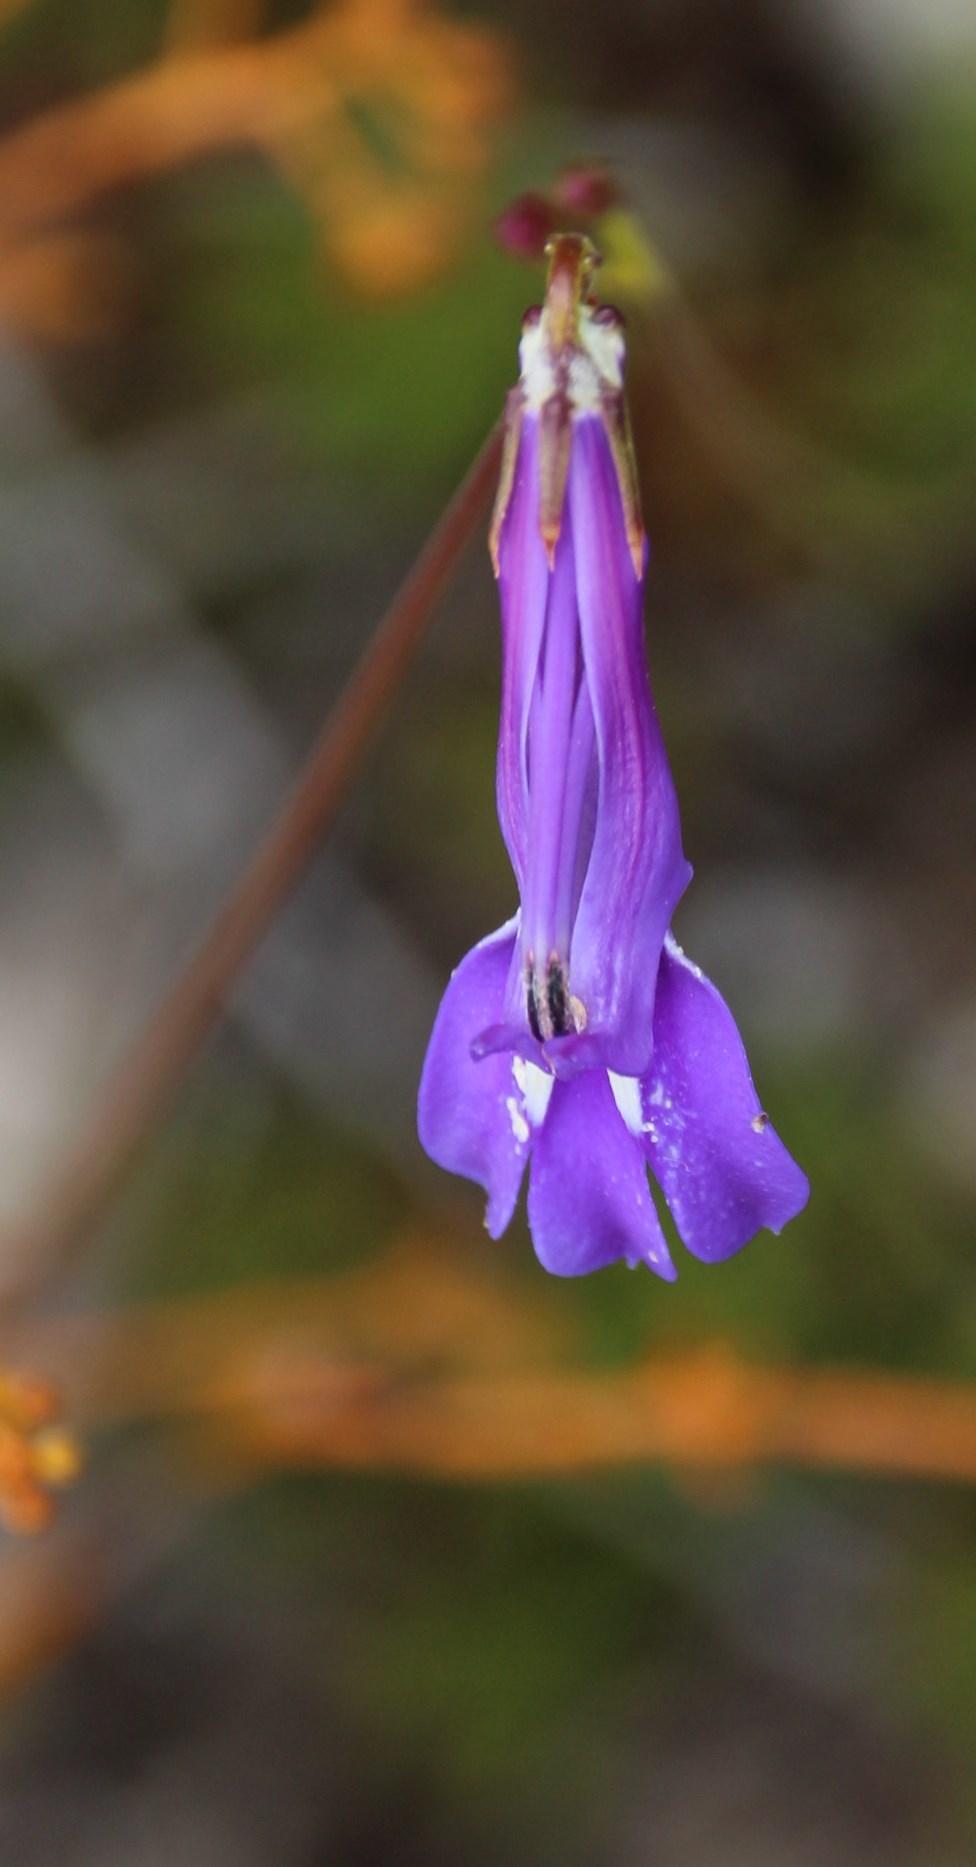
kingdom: Plantae
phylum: Tracheophyta
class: Magnoliopsida
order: Asterales
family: Campanulaceae
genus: Lobelia
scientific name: Lobelia coronopifolia
